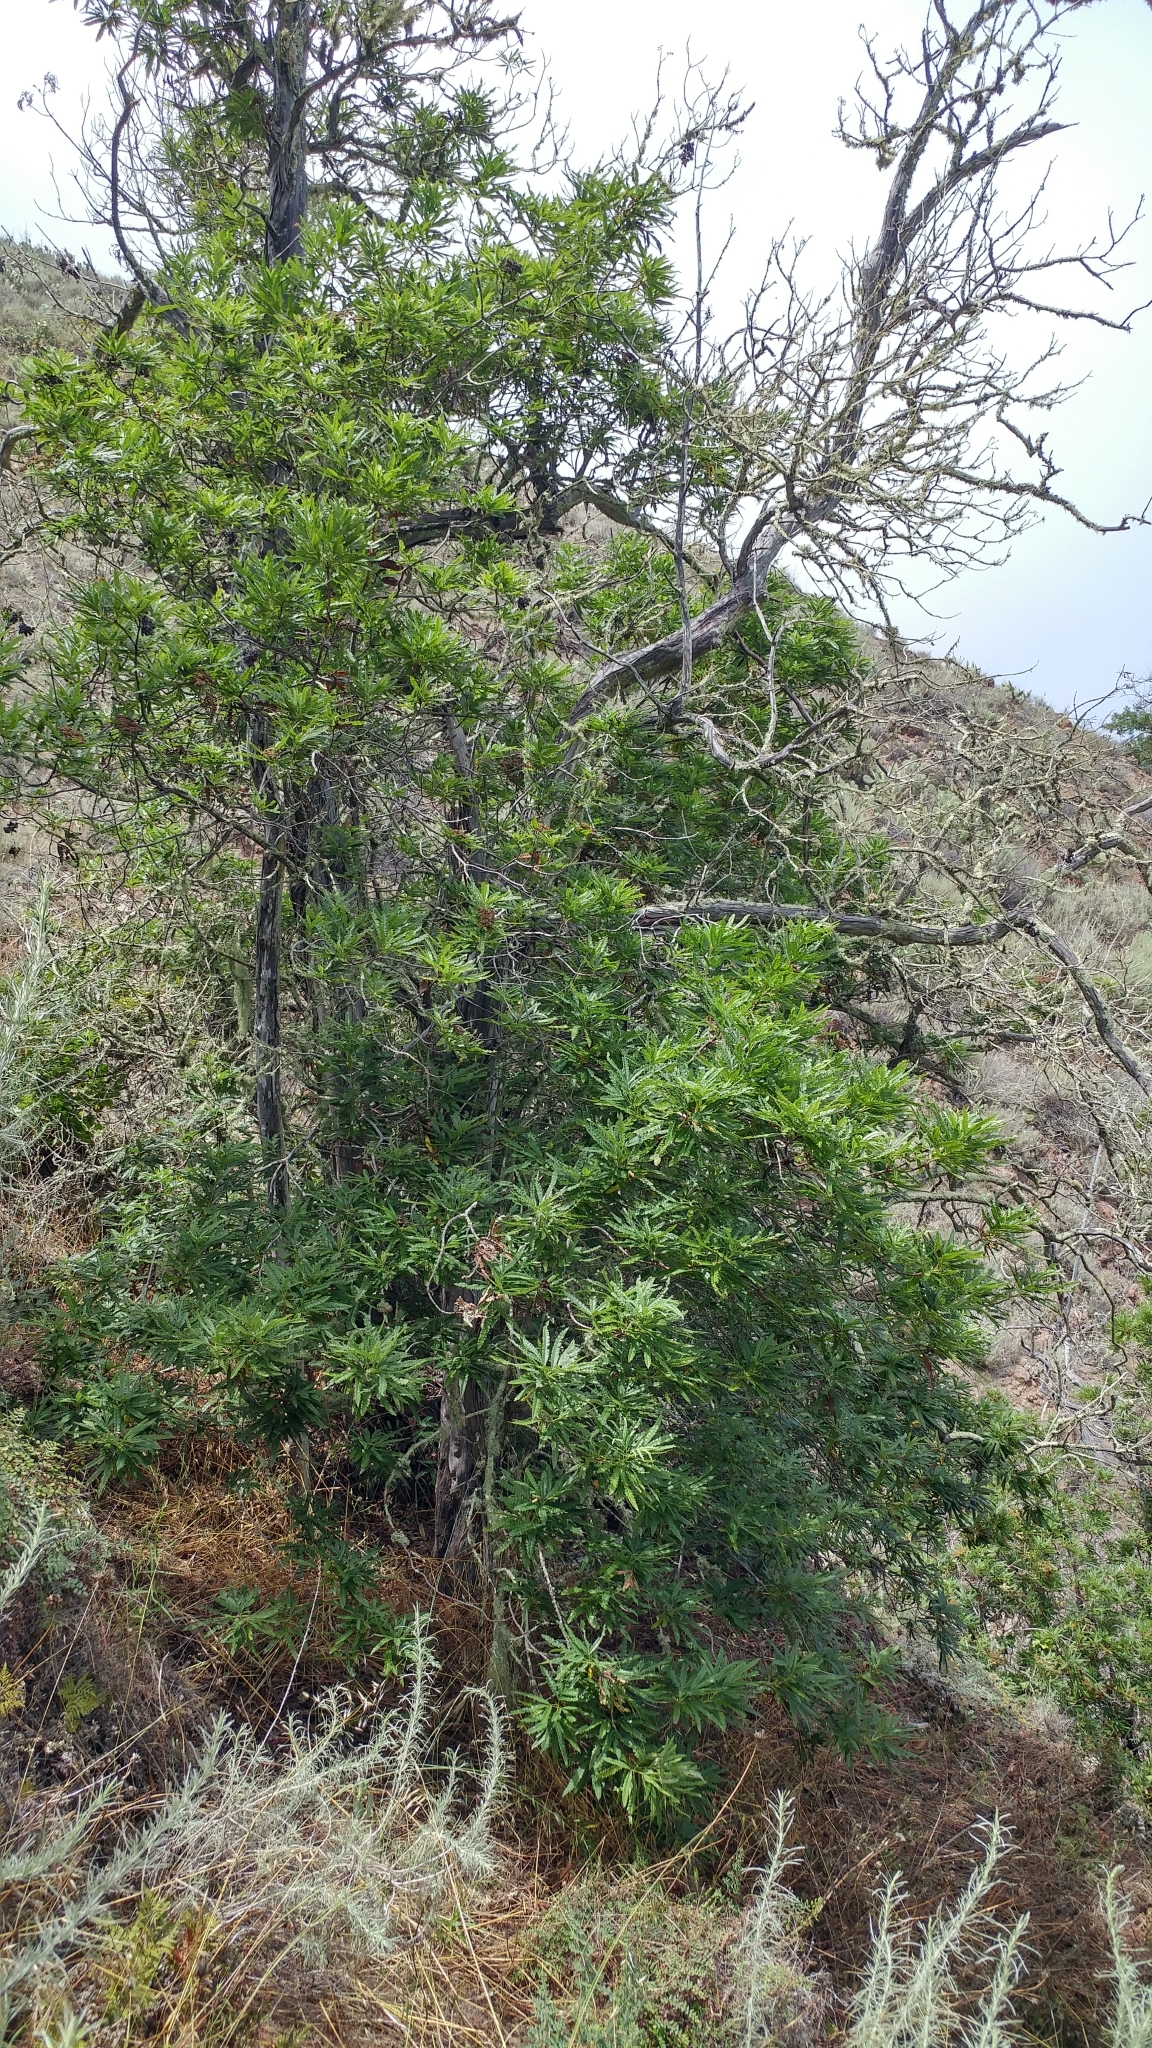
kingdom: Plantae
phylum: Tracheophyta
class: Magnoliopsida
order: Rosales
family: Rosaceae
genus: Lyonothamnus
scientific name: Lyonothamnus floribundus
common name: Catalina ironwood
